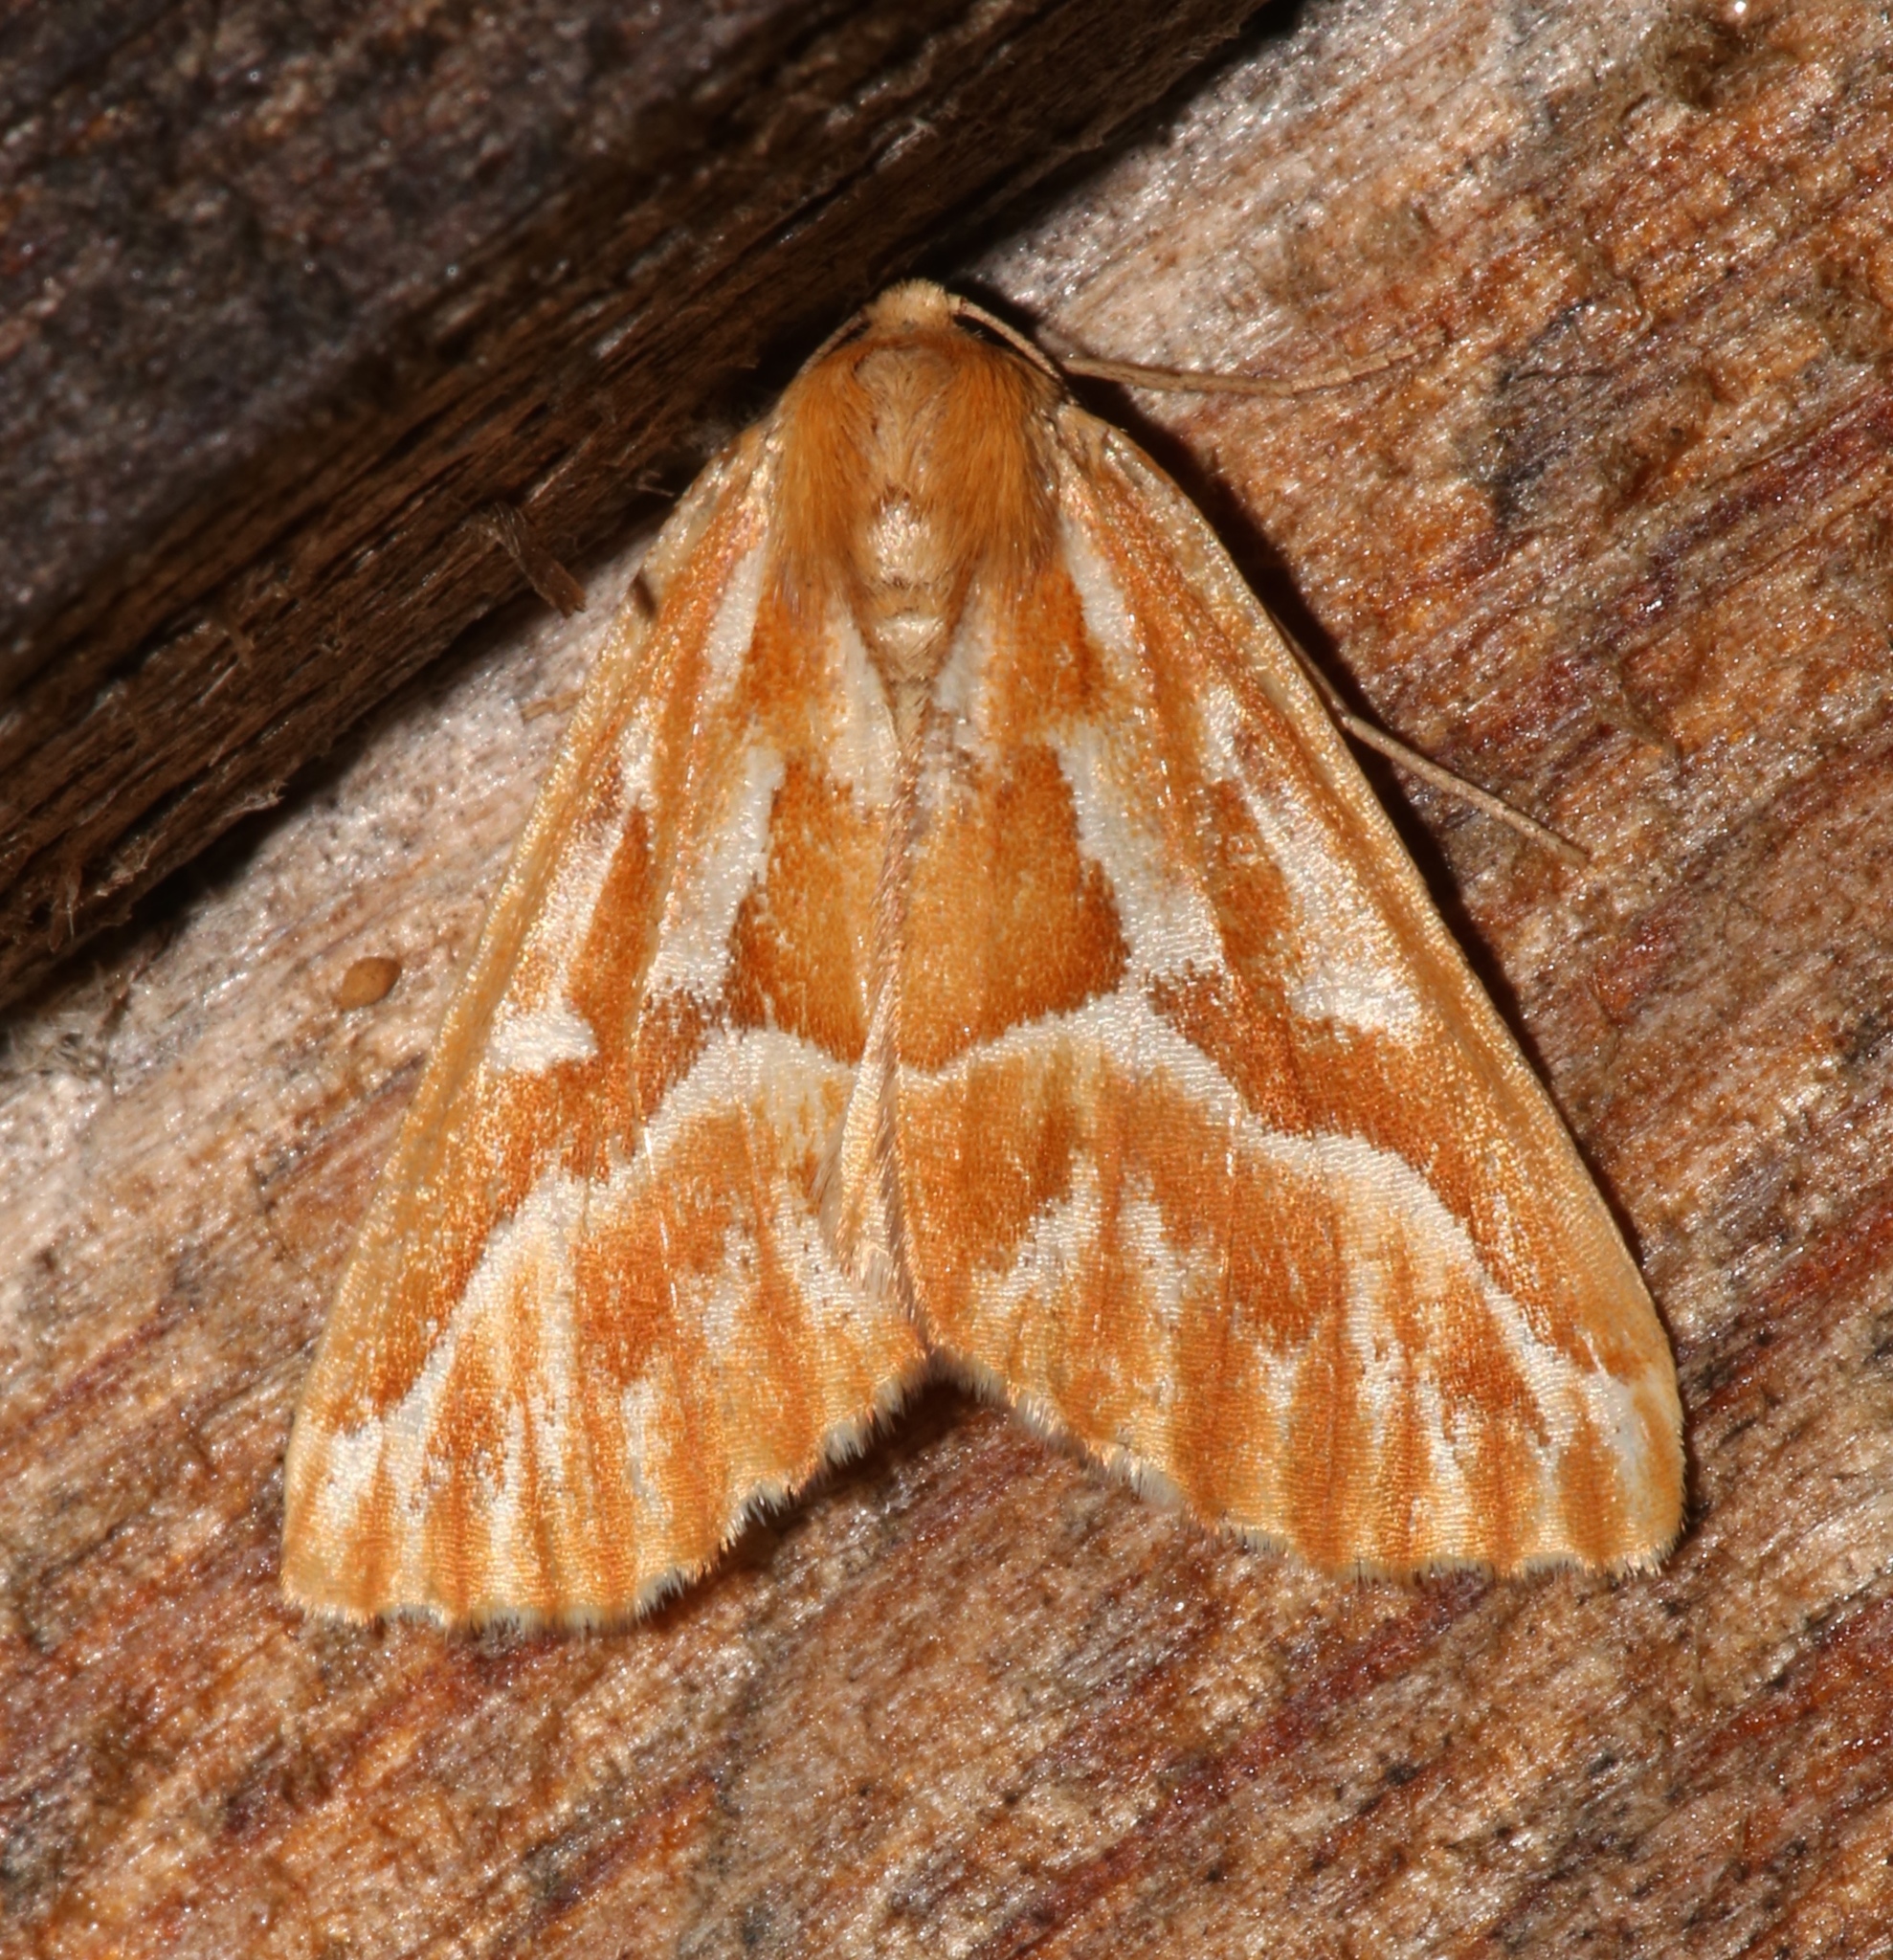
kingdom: Animalia
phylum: Arthropoda
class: Insecta
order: Lepidoptera
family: Geometridae
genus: Caripeta
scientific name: Caripeta piniata
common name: Northern pine looper moth
